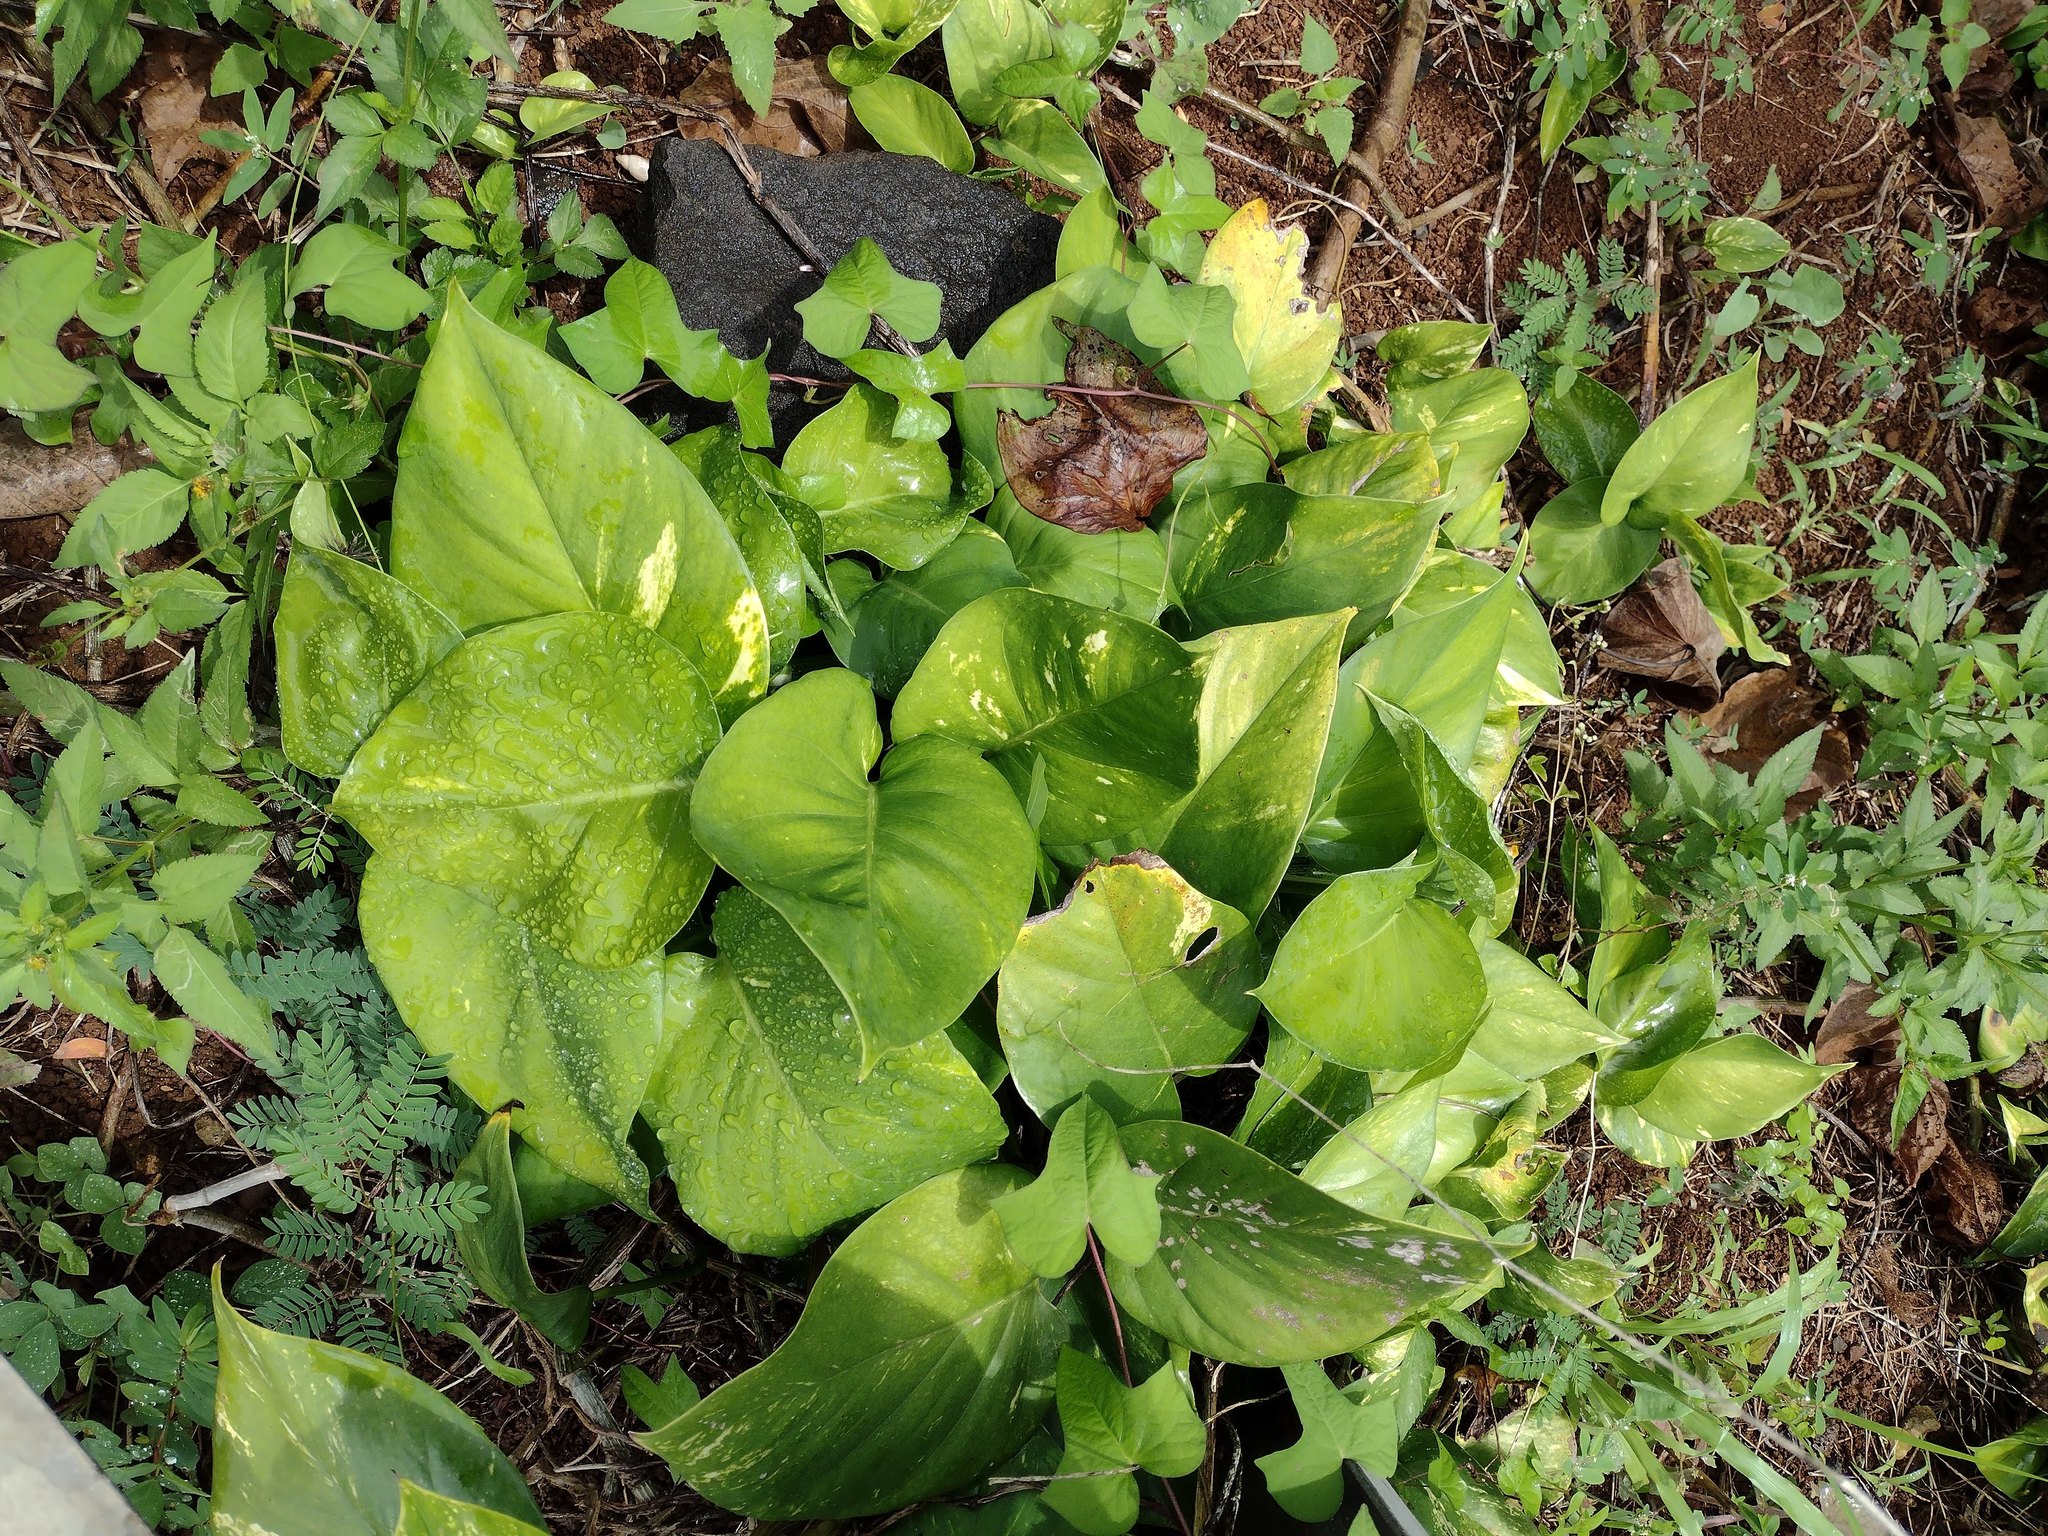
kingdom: Plantae
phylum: Tracheophyta
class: Liliopsida
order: Alismatales
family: Araceae
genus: Epipremnum
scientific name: Epipremnum aureum
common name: Golden hunter's-robe
